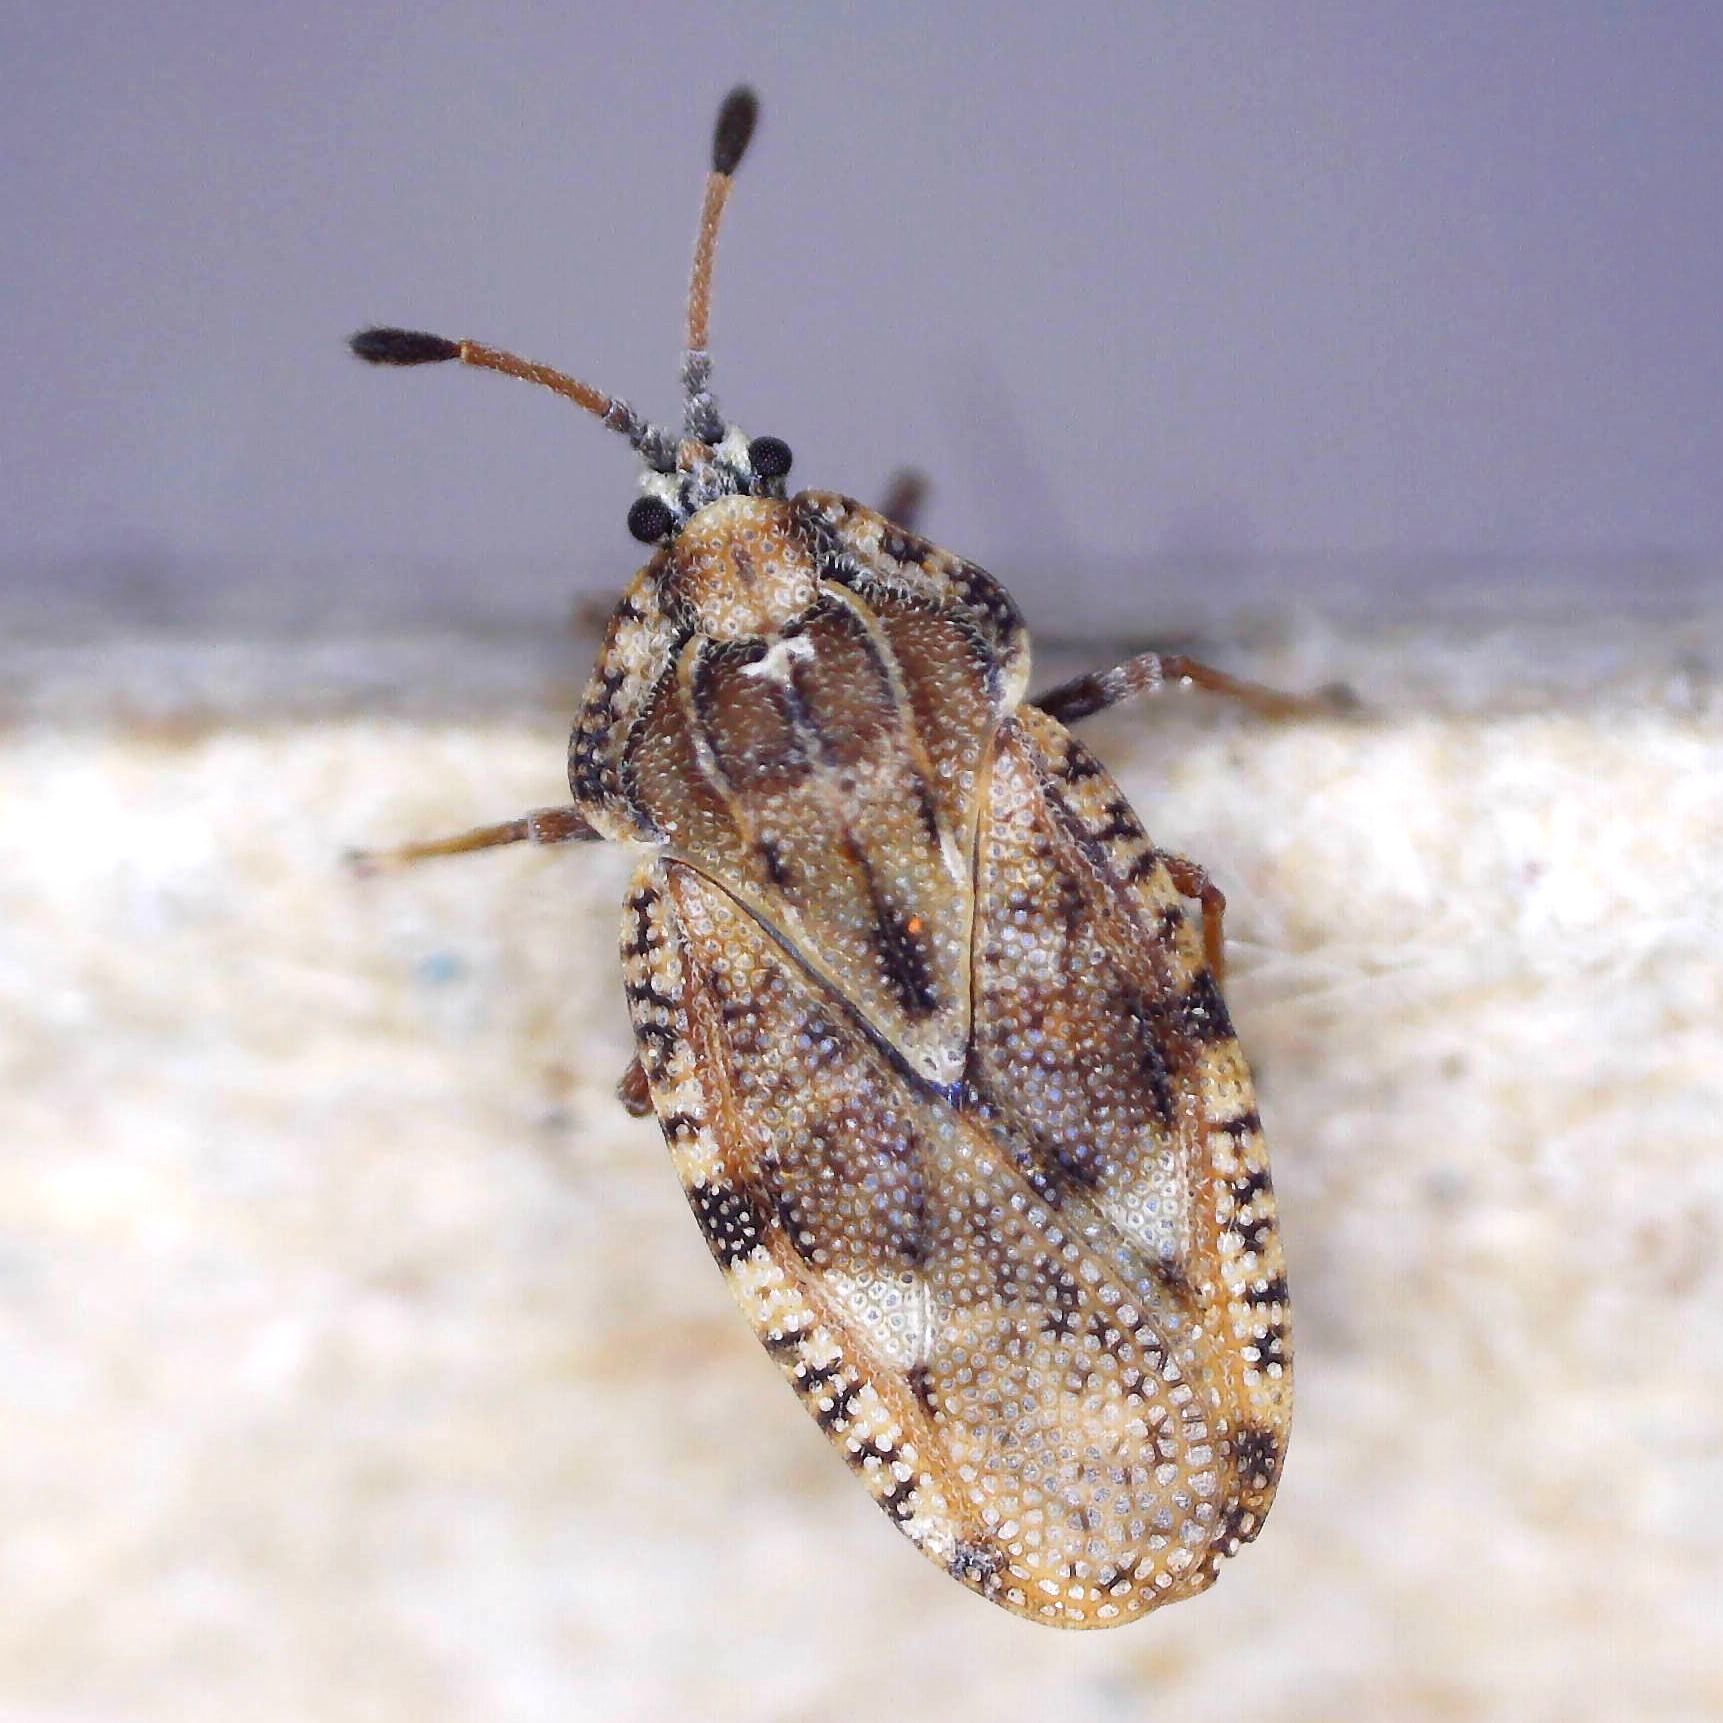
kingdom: Animalia
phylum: Arthropoda
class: Insecta
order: Hemiptera
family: Tingidae
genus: Tingis
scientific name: Tingis cardui
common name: Spear thistle lacebug
